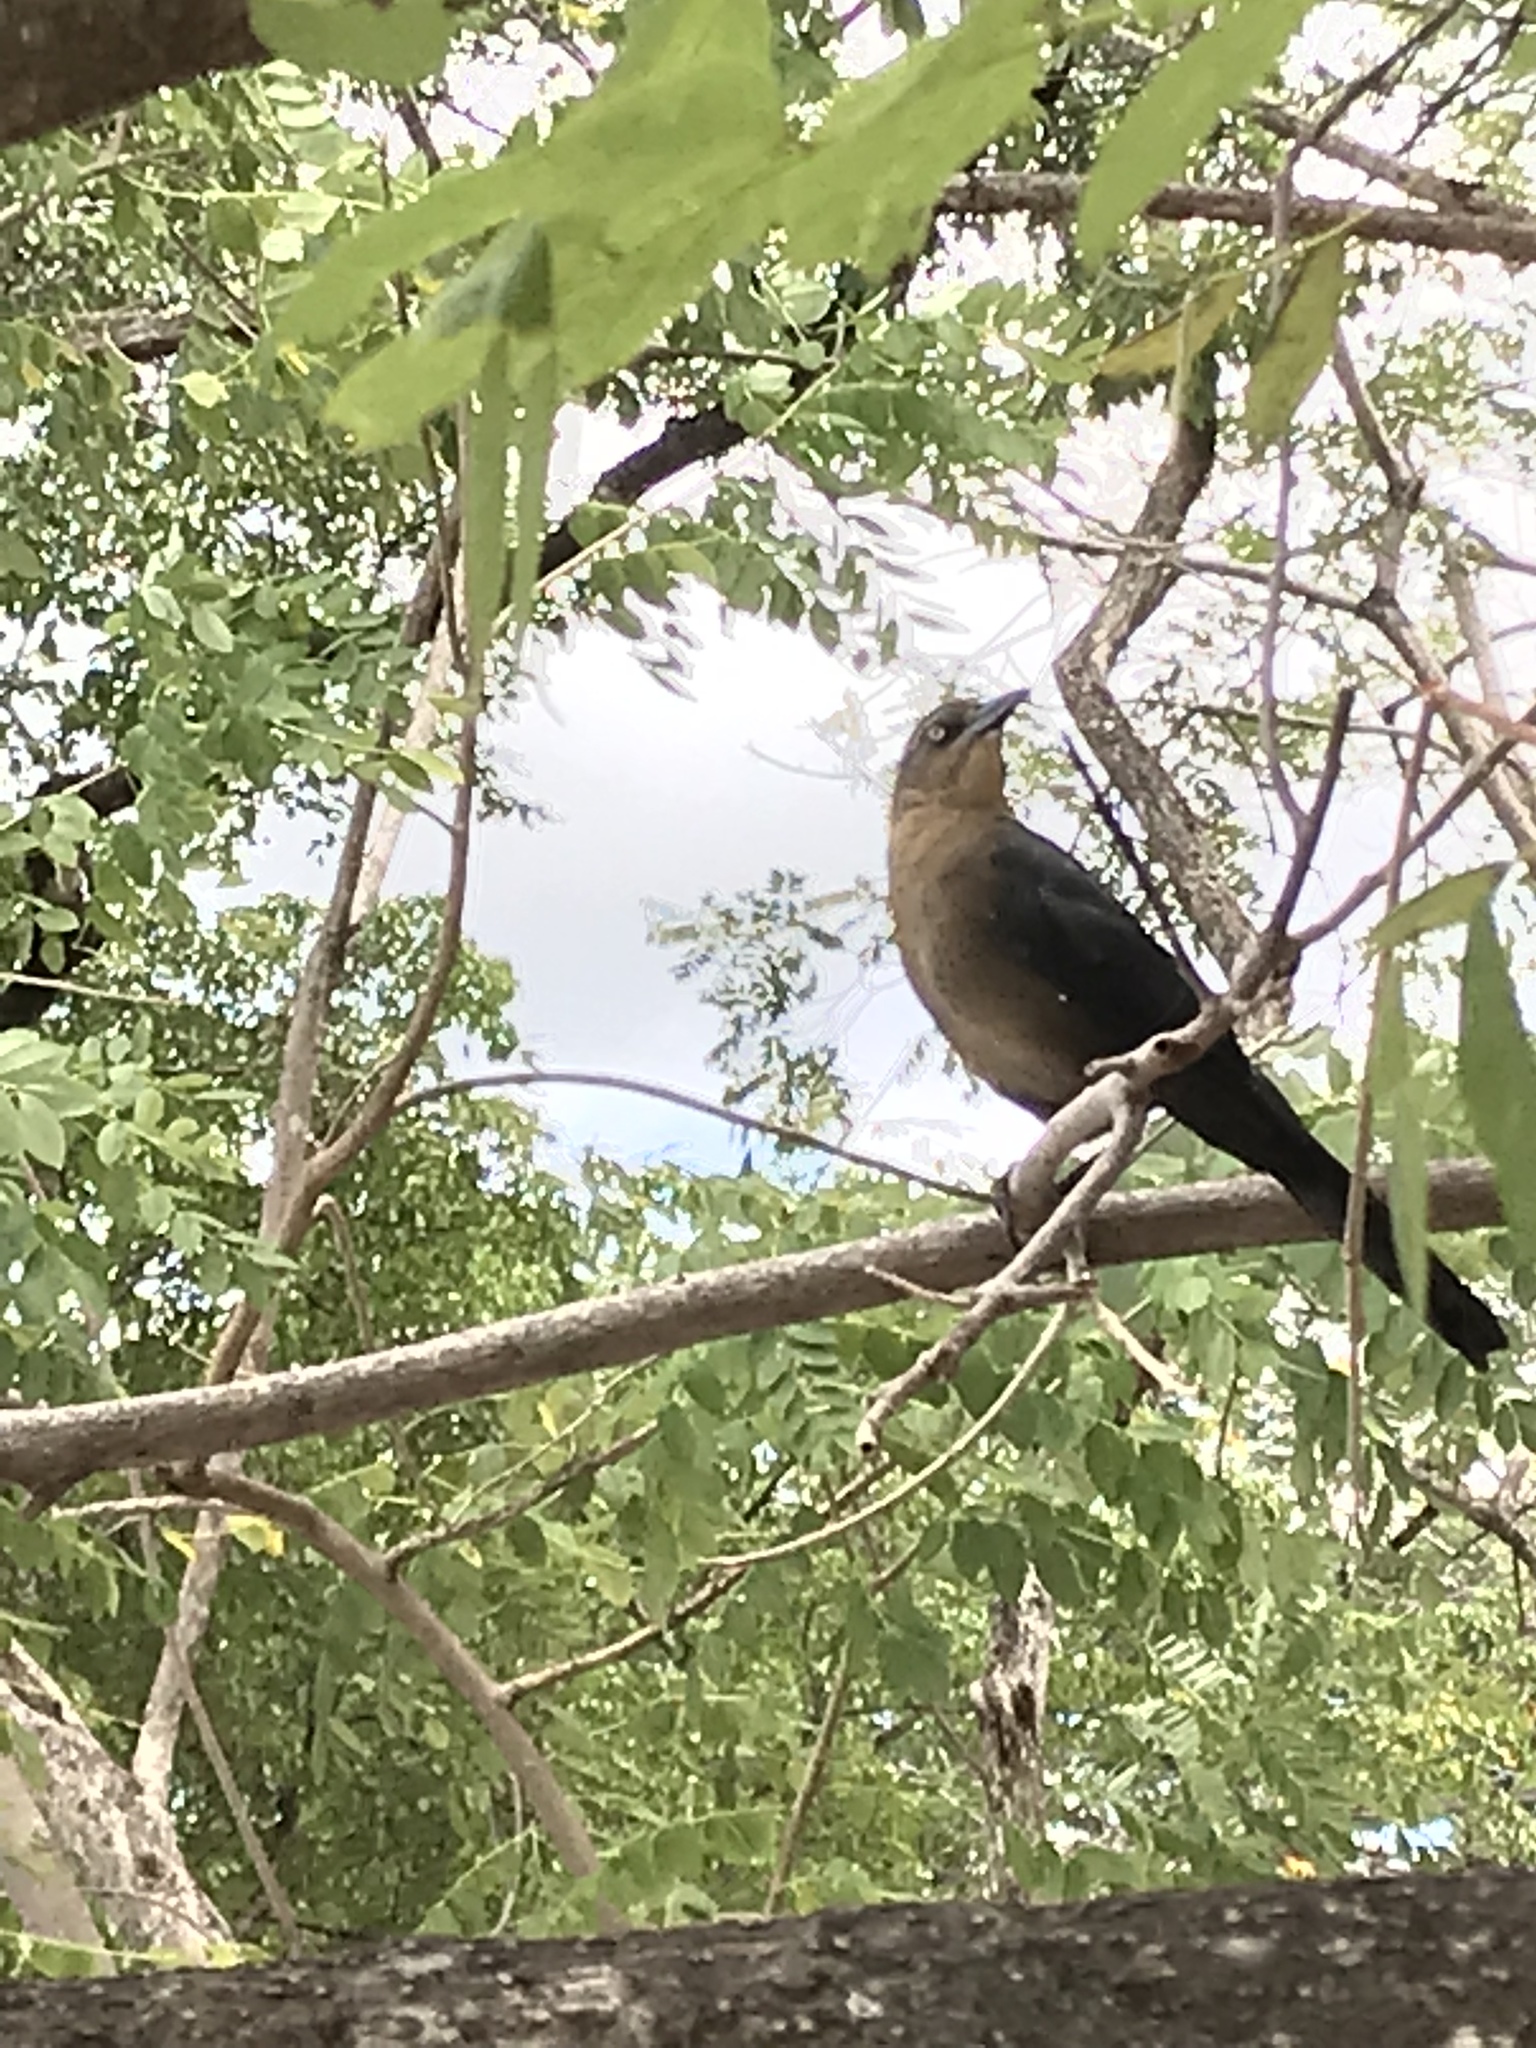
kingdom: Animalia
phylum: Chordata
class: Aves
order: Passeriformes
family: Icteridae
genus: Quiscalus
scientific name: Quiscalus mexicanus
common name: Great-tailed grackle
